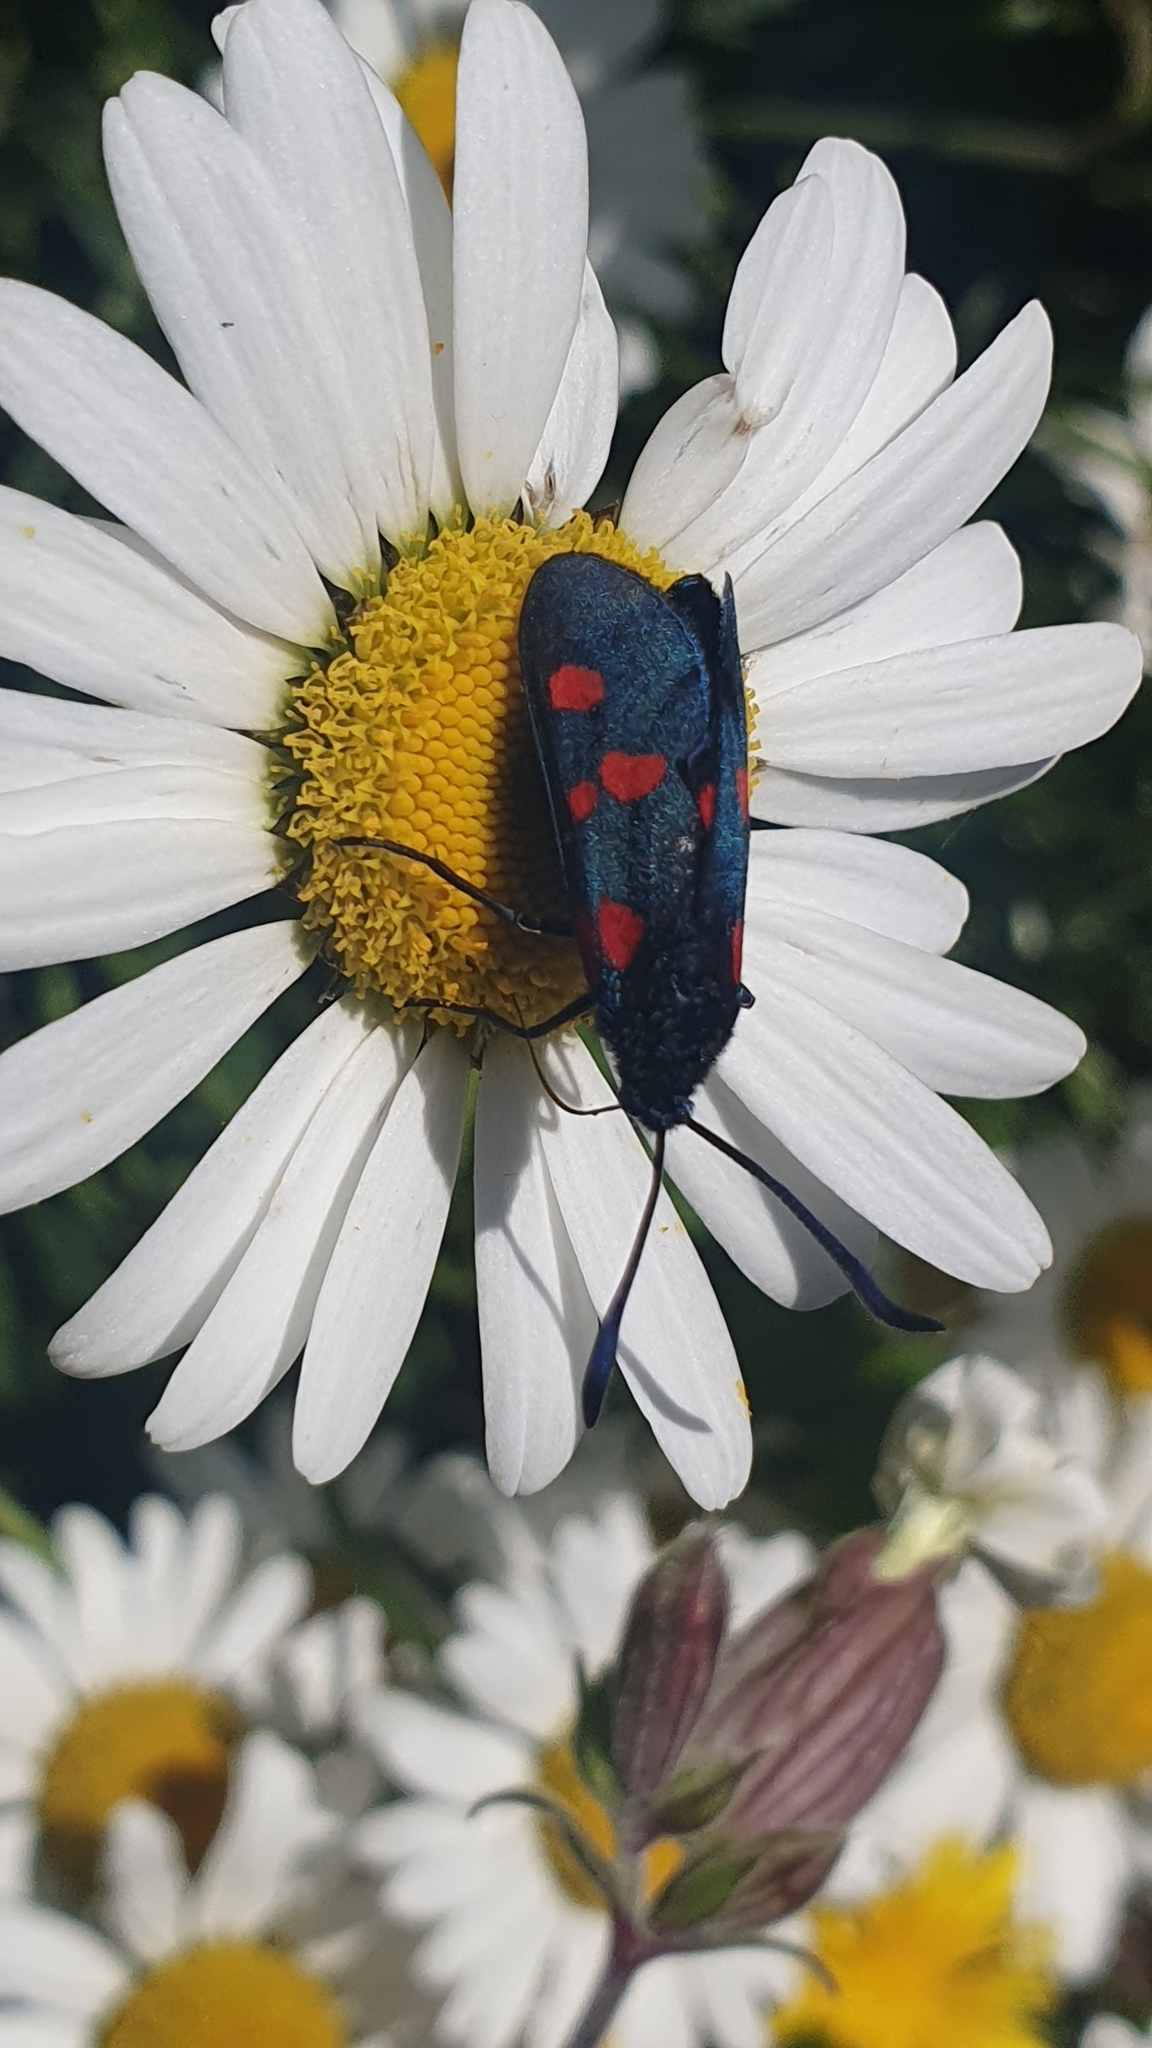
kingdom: Animalia
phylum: Arthropoda
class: Insecta
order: Lepidoptera
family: Zygaenidae
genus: Zygaena
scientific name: Zygaena trifolii
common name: Five-spot burnet
